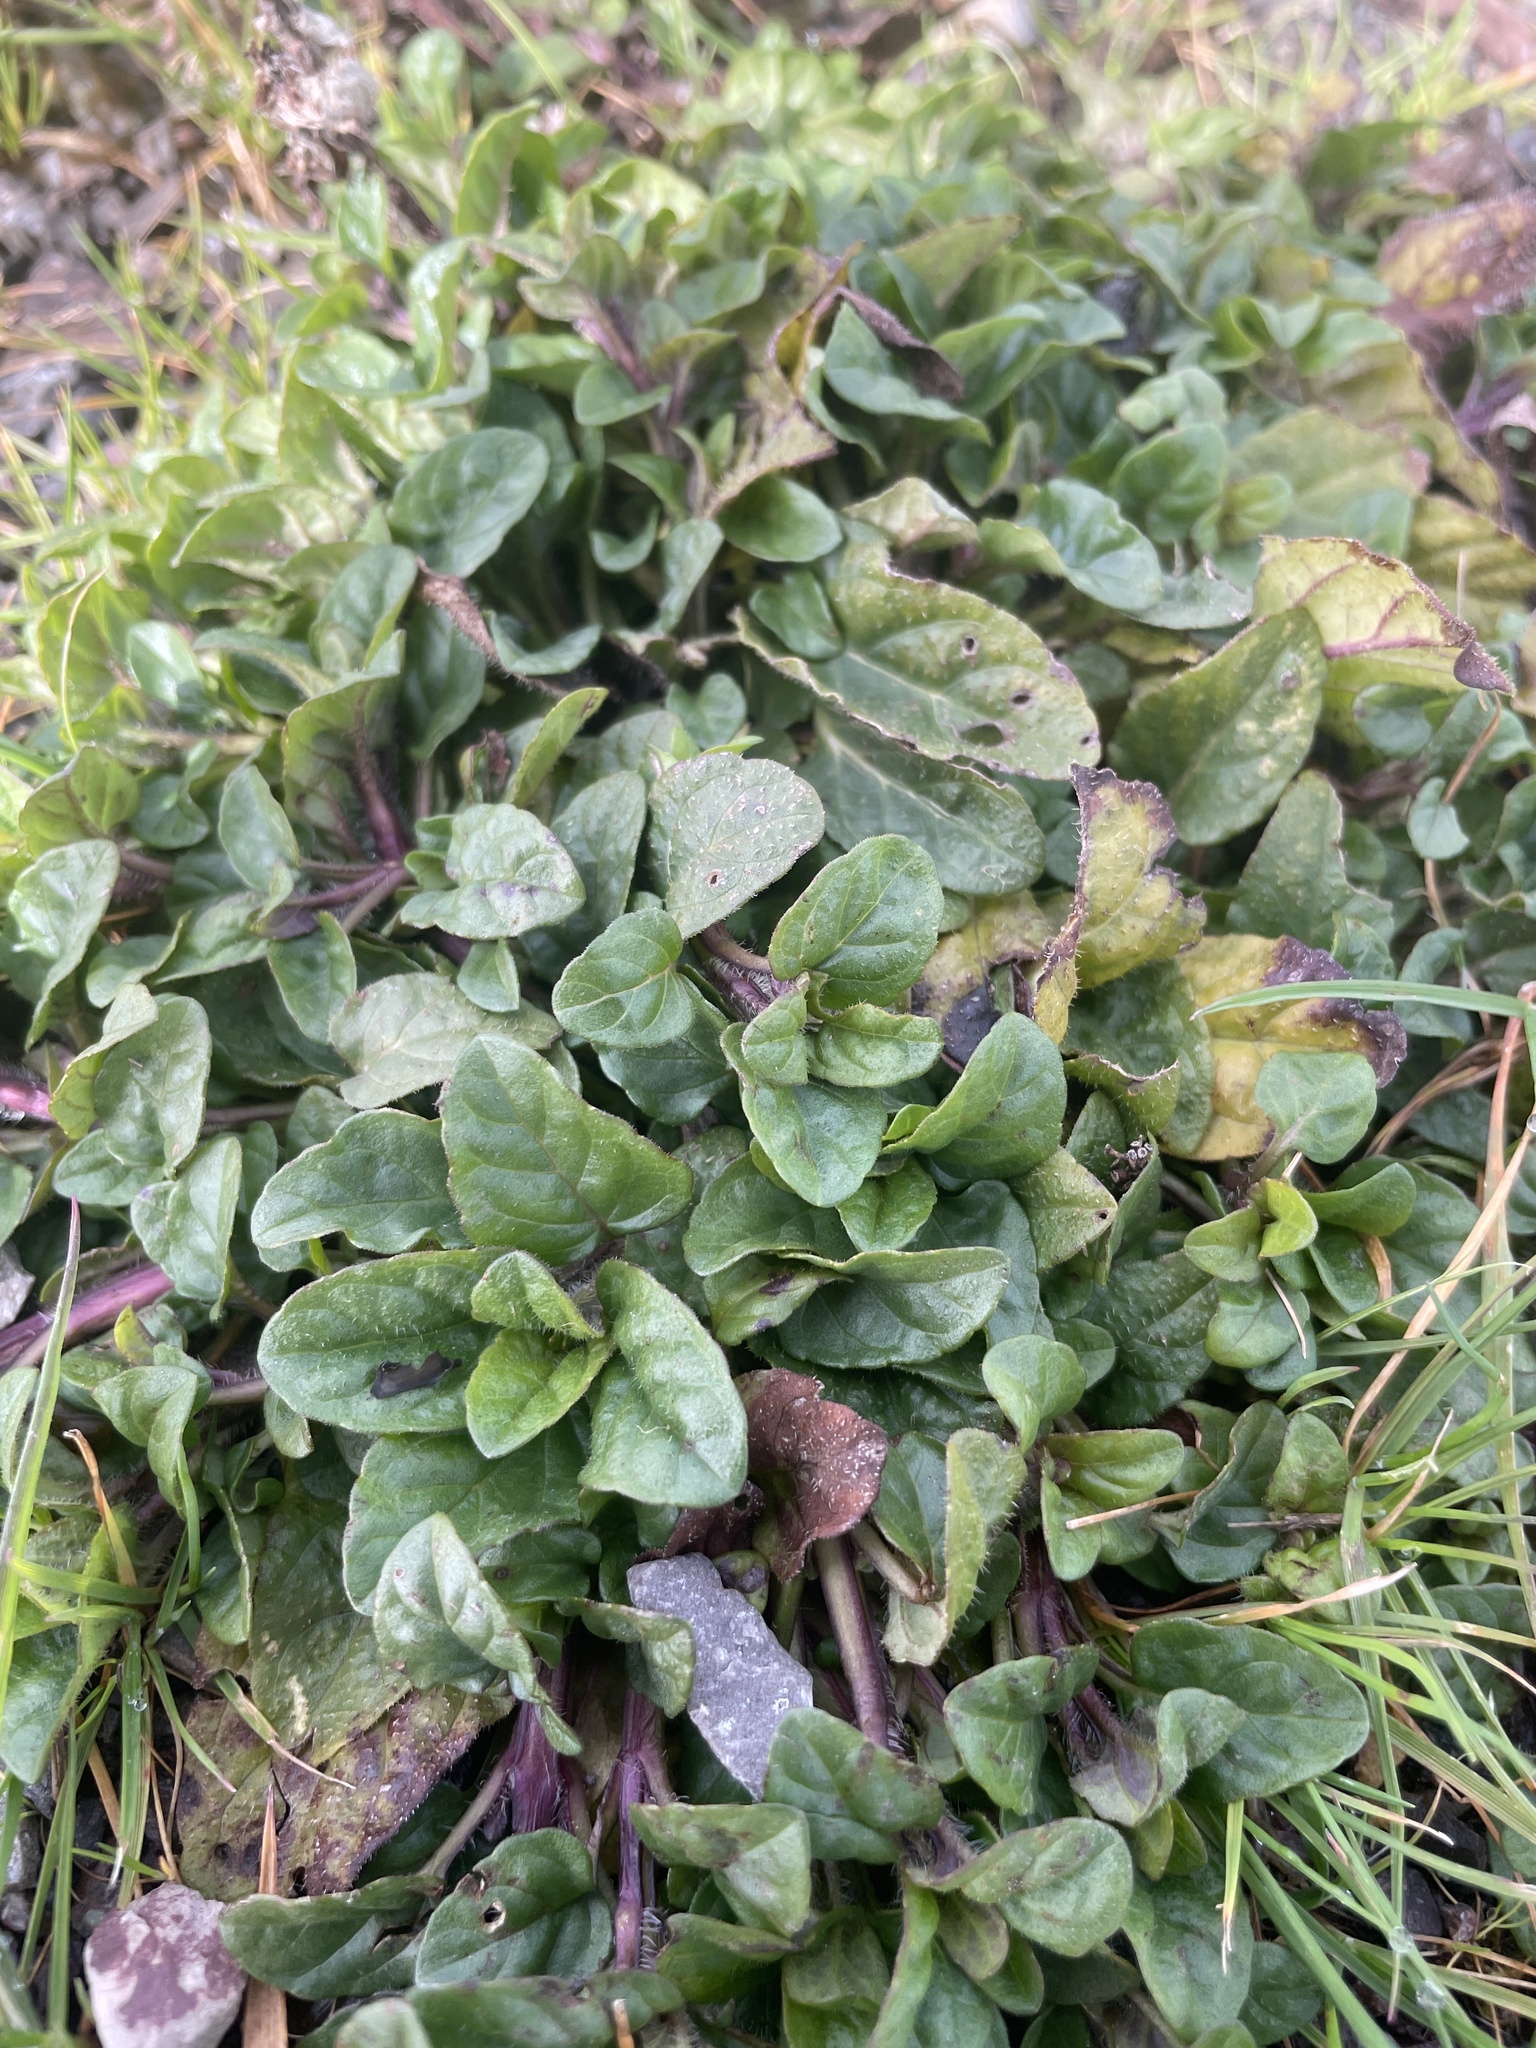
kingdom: Plantae
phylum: Tracheophyta
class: Magnoliopsida
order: Lamiales
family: Lamiaceae
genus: Prunella
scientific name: Prunella vulgaris
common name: Heal-all
